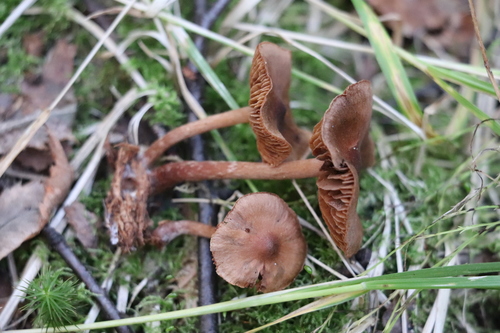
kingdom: Fungi
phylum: Basidiomycota
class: Agaricomycetes
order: Agaricales
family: Cortinariaceae
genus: Cortinarius
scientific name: Cortinarius parvannulatus
